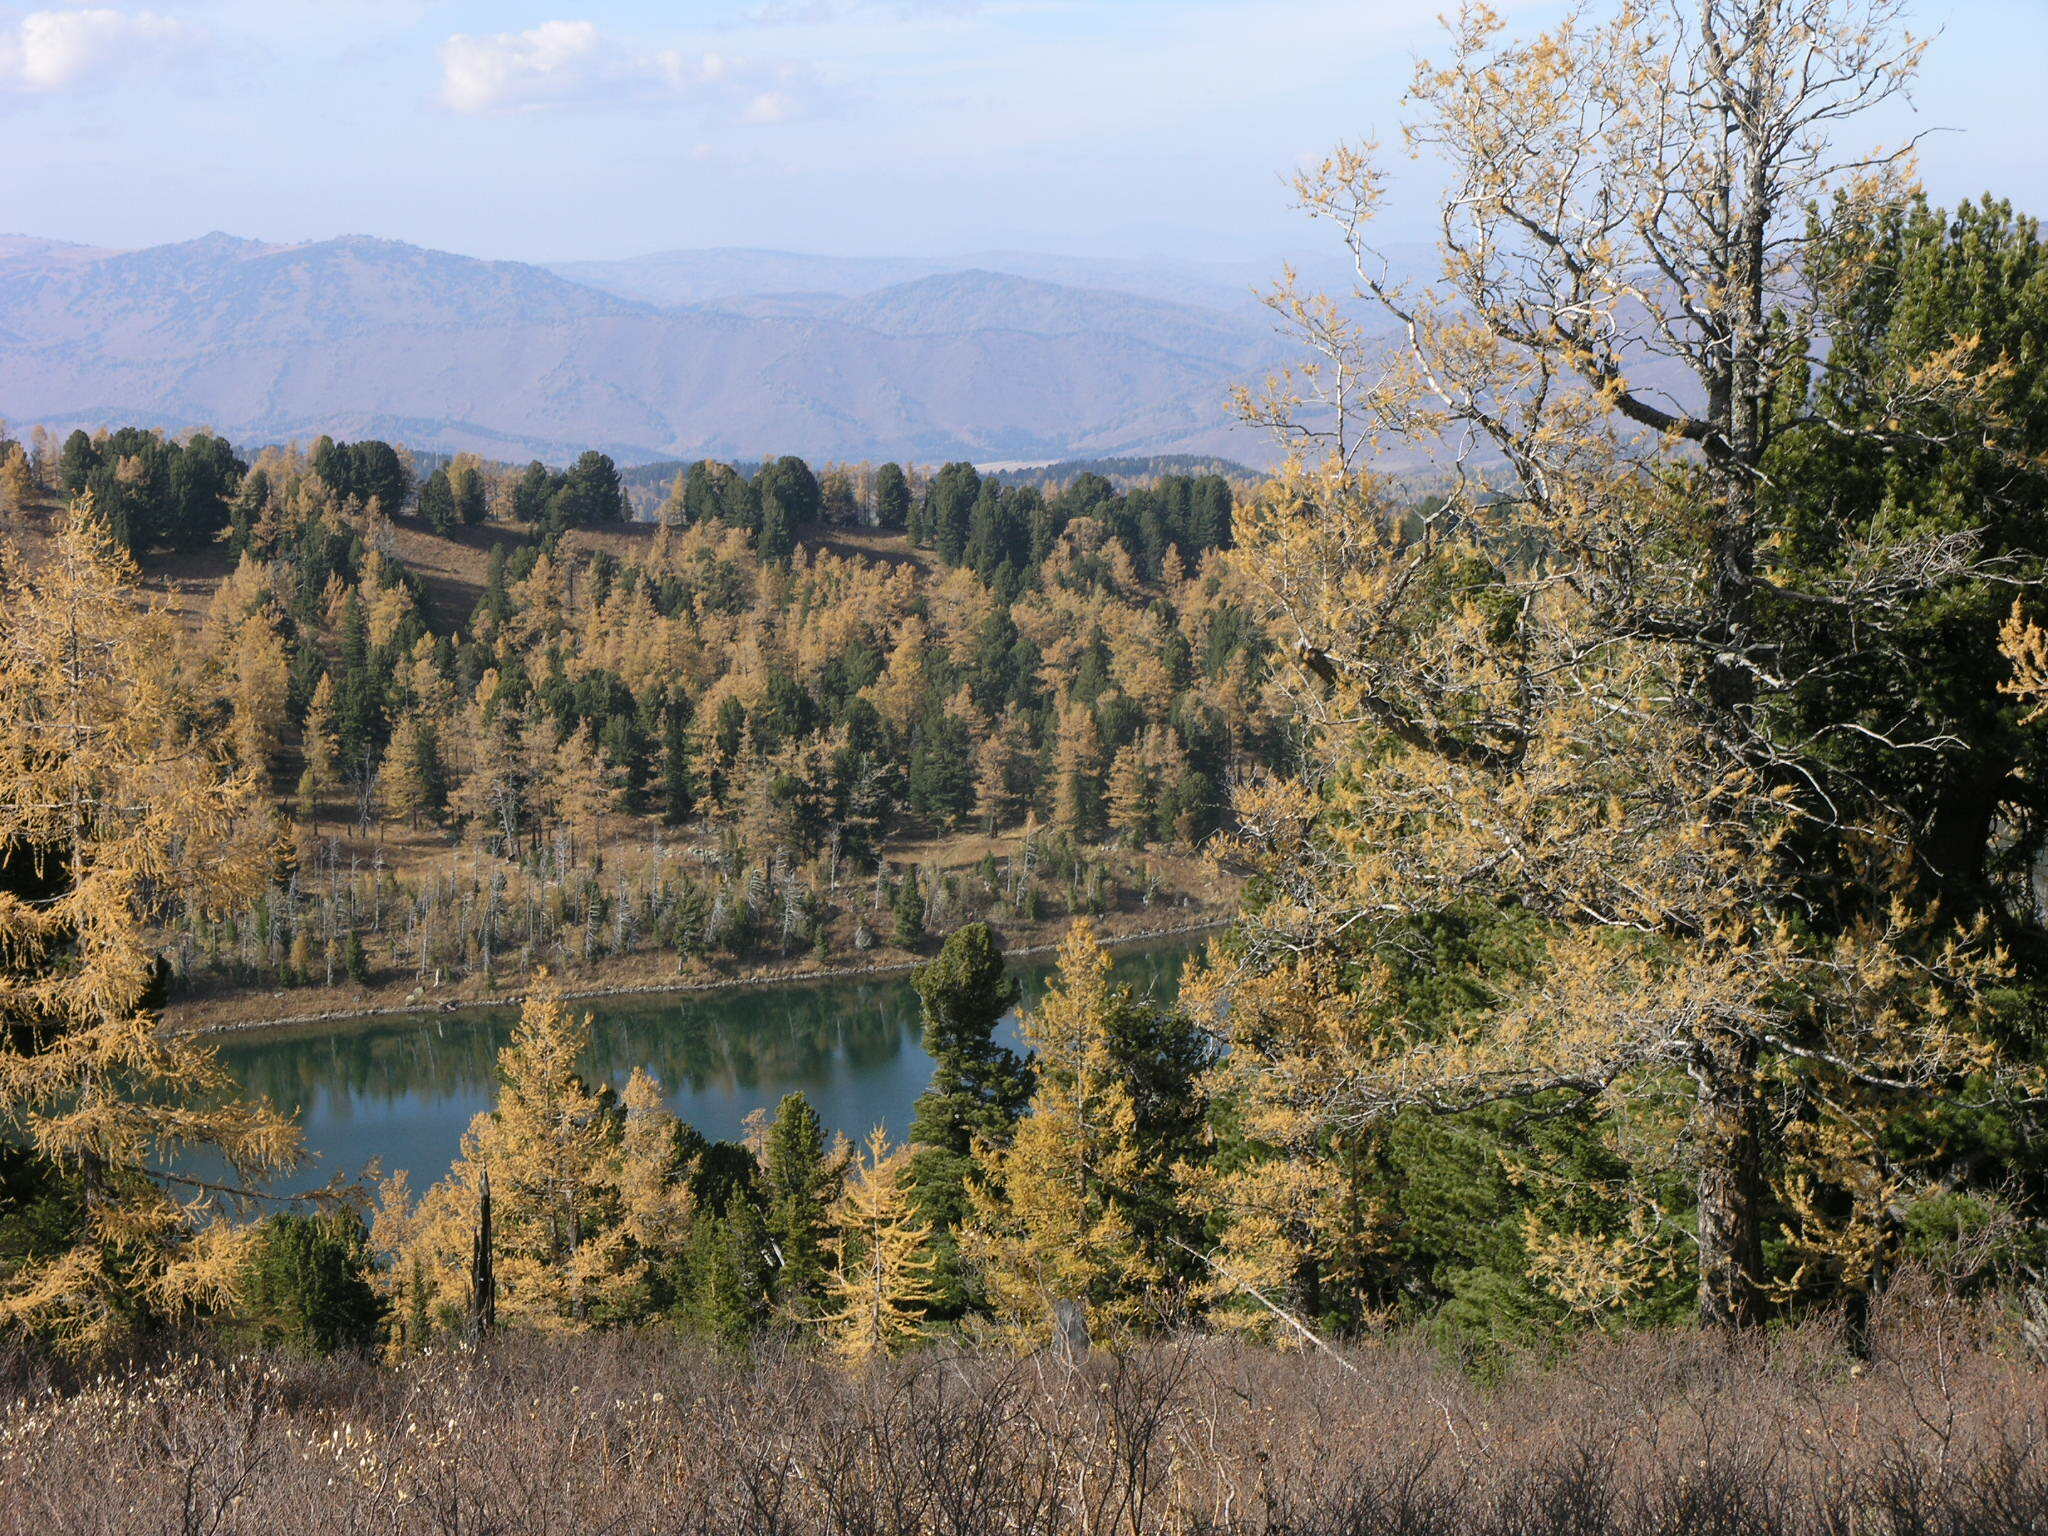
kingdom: Plantae
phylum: Tracheophyta
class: Pinopsida
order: Pinales
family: Pinaceae
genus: Larix
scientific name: Larix sibirica
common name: Siberian larch
